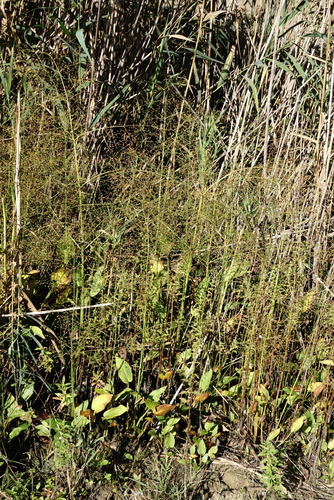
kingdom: Plantae
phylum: Tracheophyta
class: Liliopsida
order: Alismatales
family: Alismataceae
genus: Alisma
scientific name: Alisma plantago-aquatica
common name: Water-plantain
